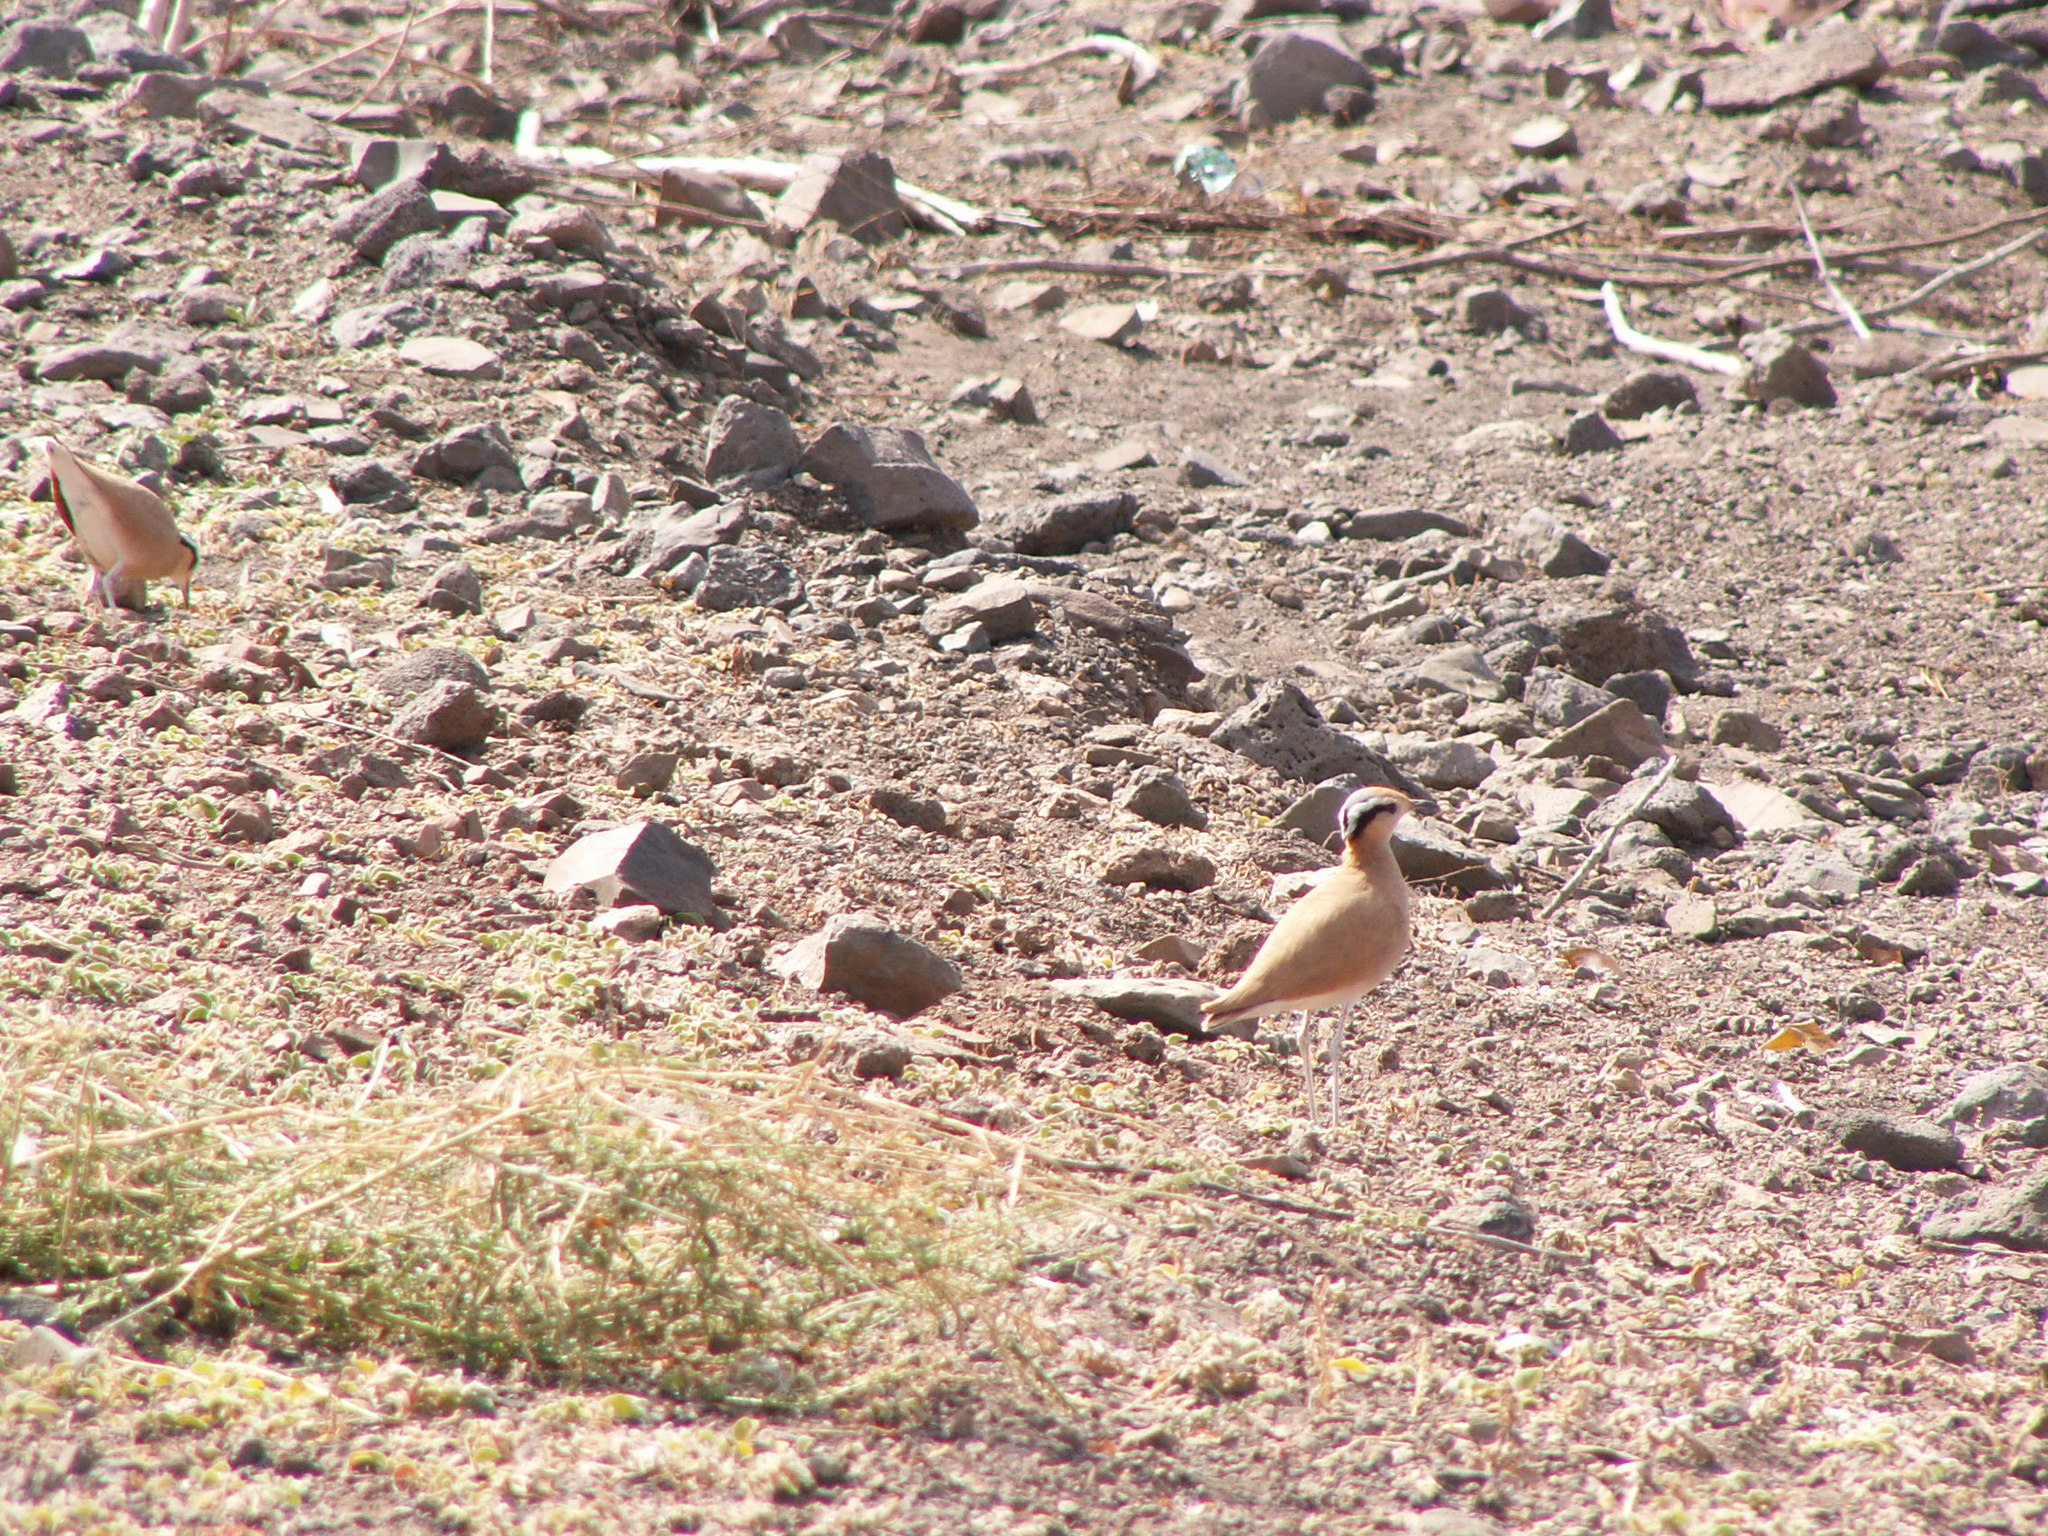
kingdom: Animalia
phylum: Chordata
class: Aves
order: Charadriiformes
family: Glareolidae
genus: Cursorius
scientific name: Cursorius cursor
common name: Cream-colored courser
